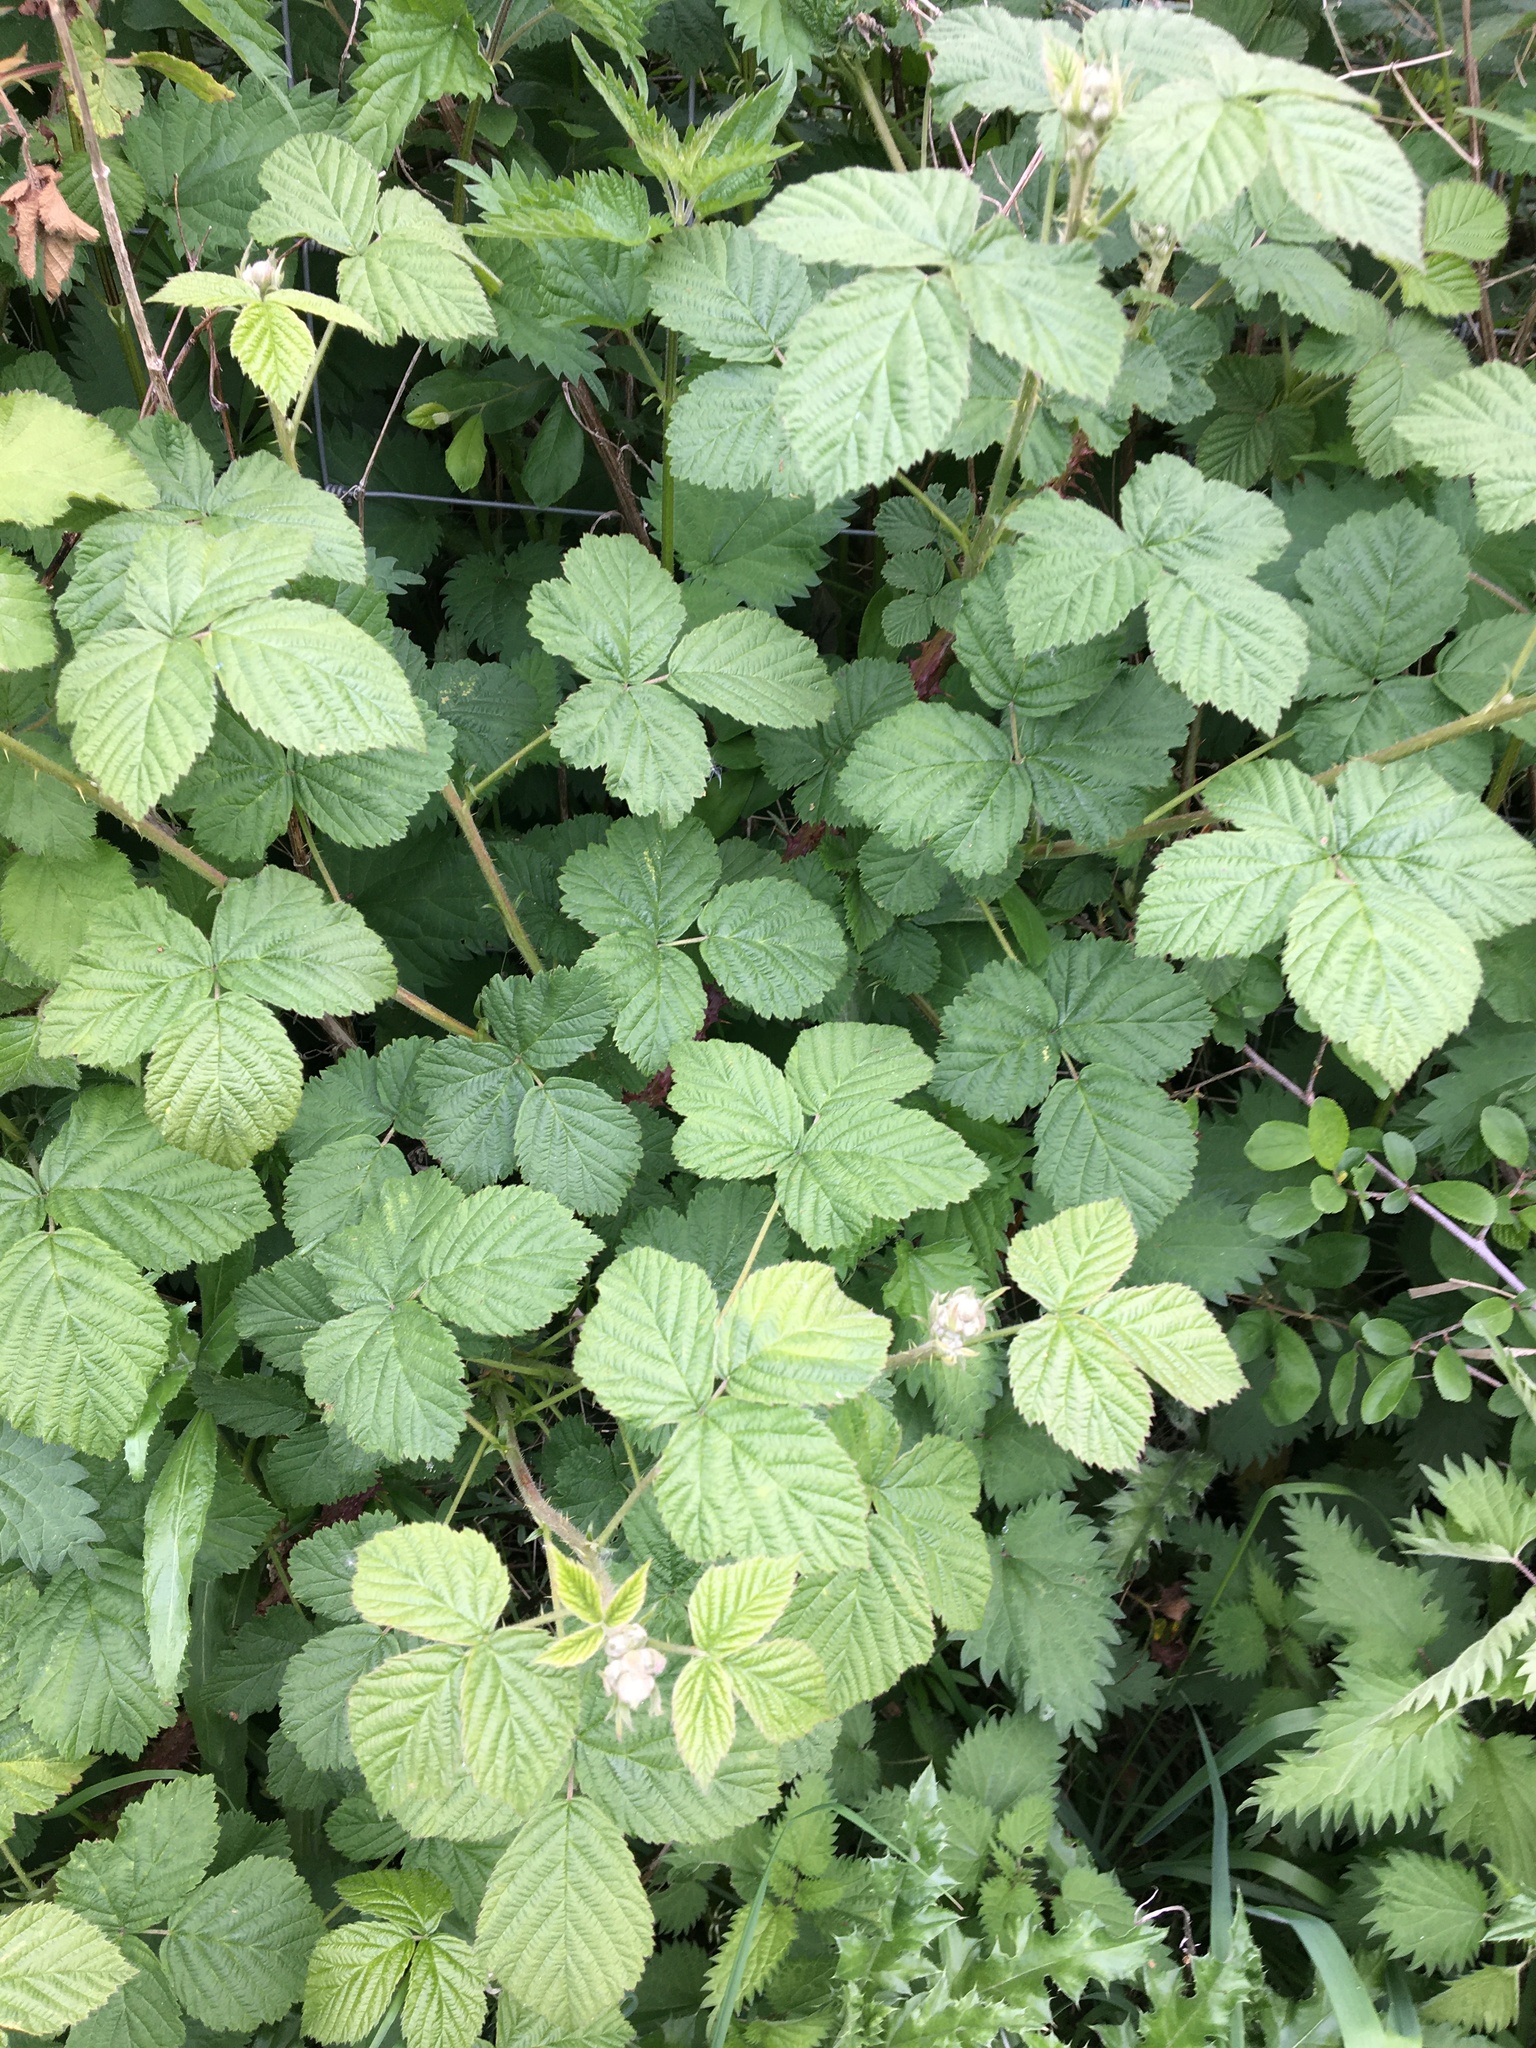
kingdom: Plantae
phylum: Tracheophyta
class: Magnoliopsida
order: Rosales
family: Rosaceae
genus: Rubus
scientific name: Rubus
